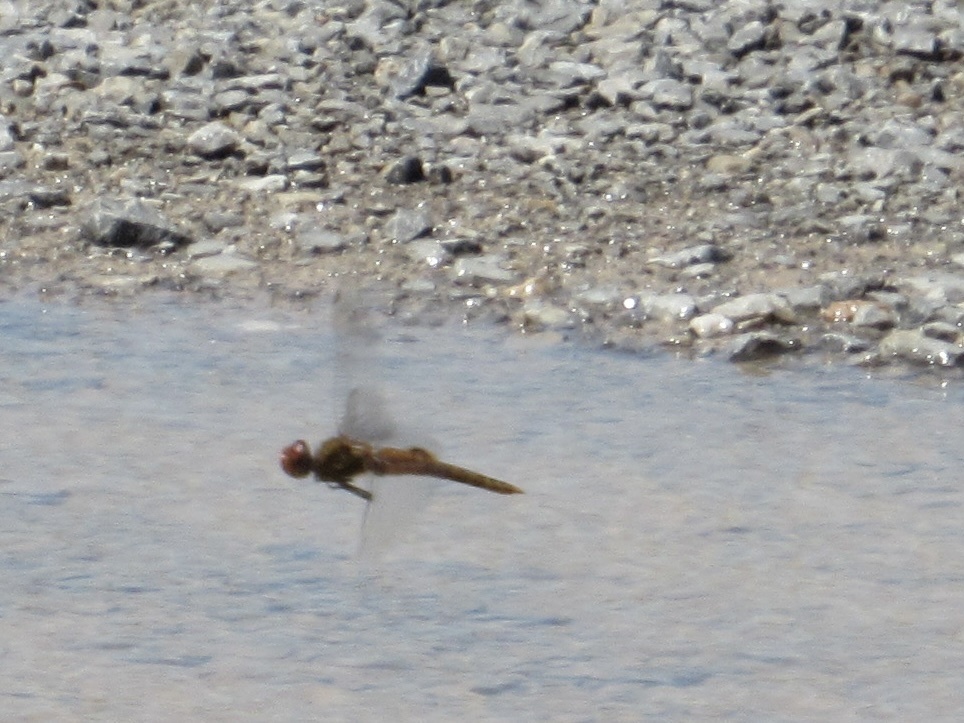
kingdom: Animalia
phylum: Arthropoda
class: Insecta
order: Odonata
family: Libellulidae
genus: Pantala
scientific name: Pantala hymenaea
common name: Spot-winged glider
